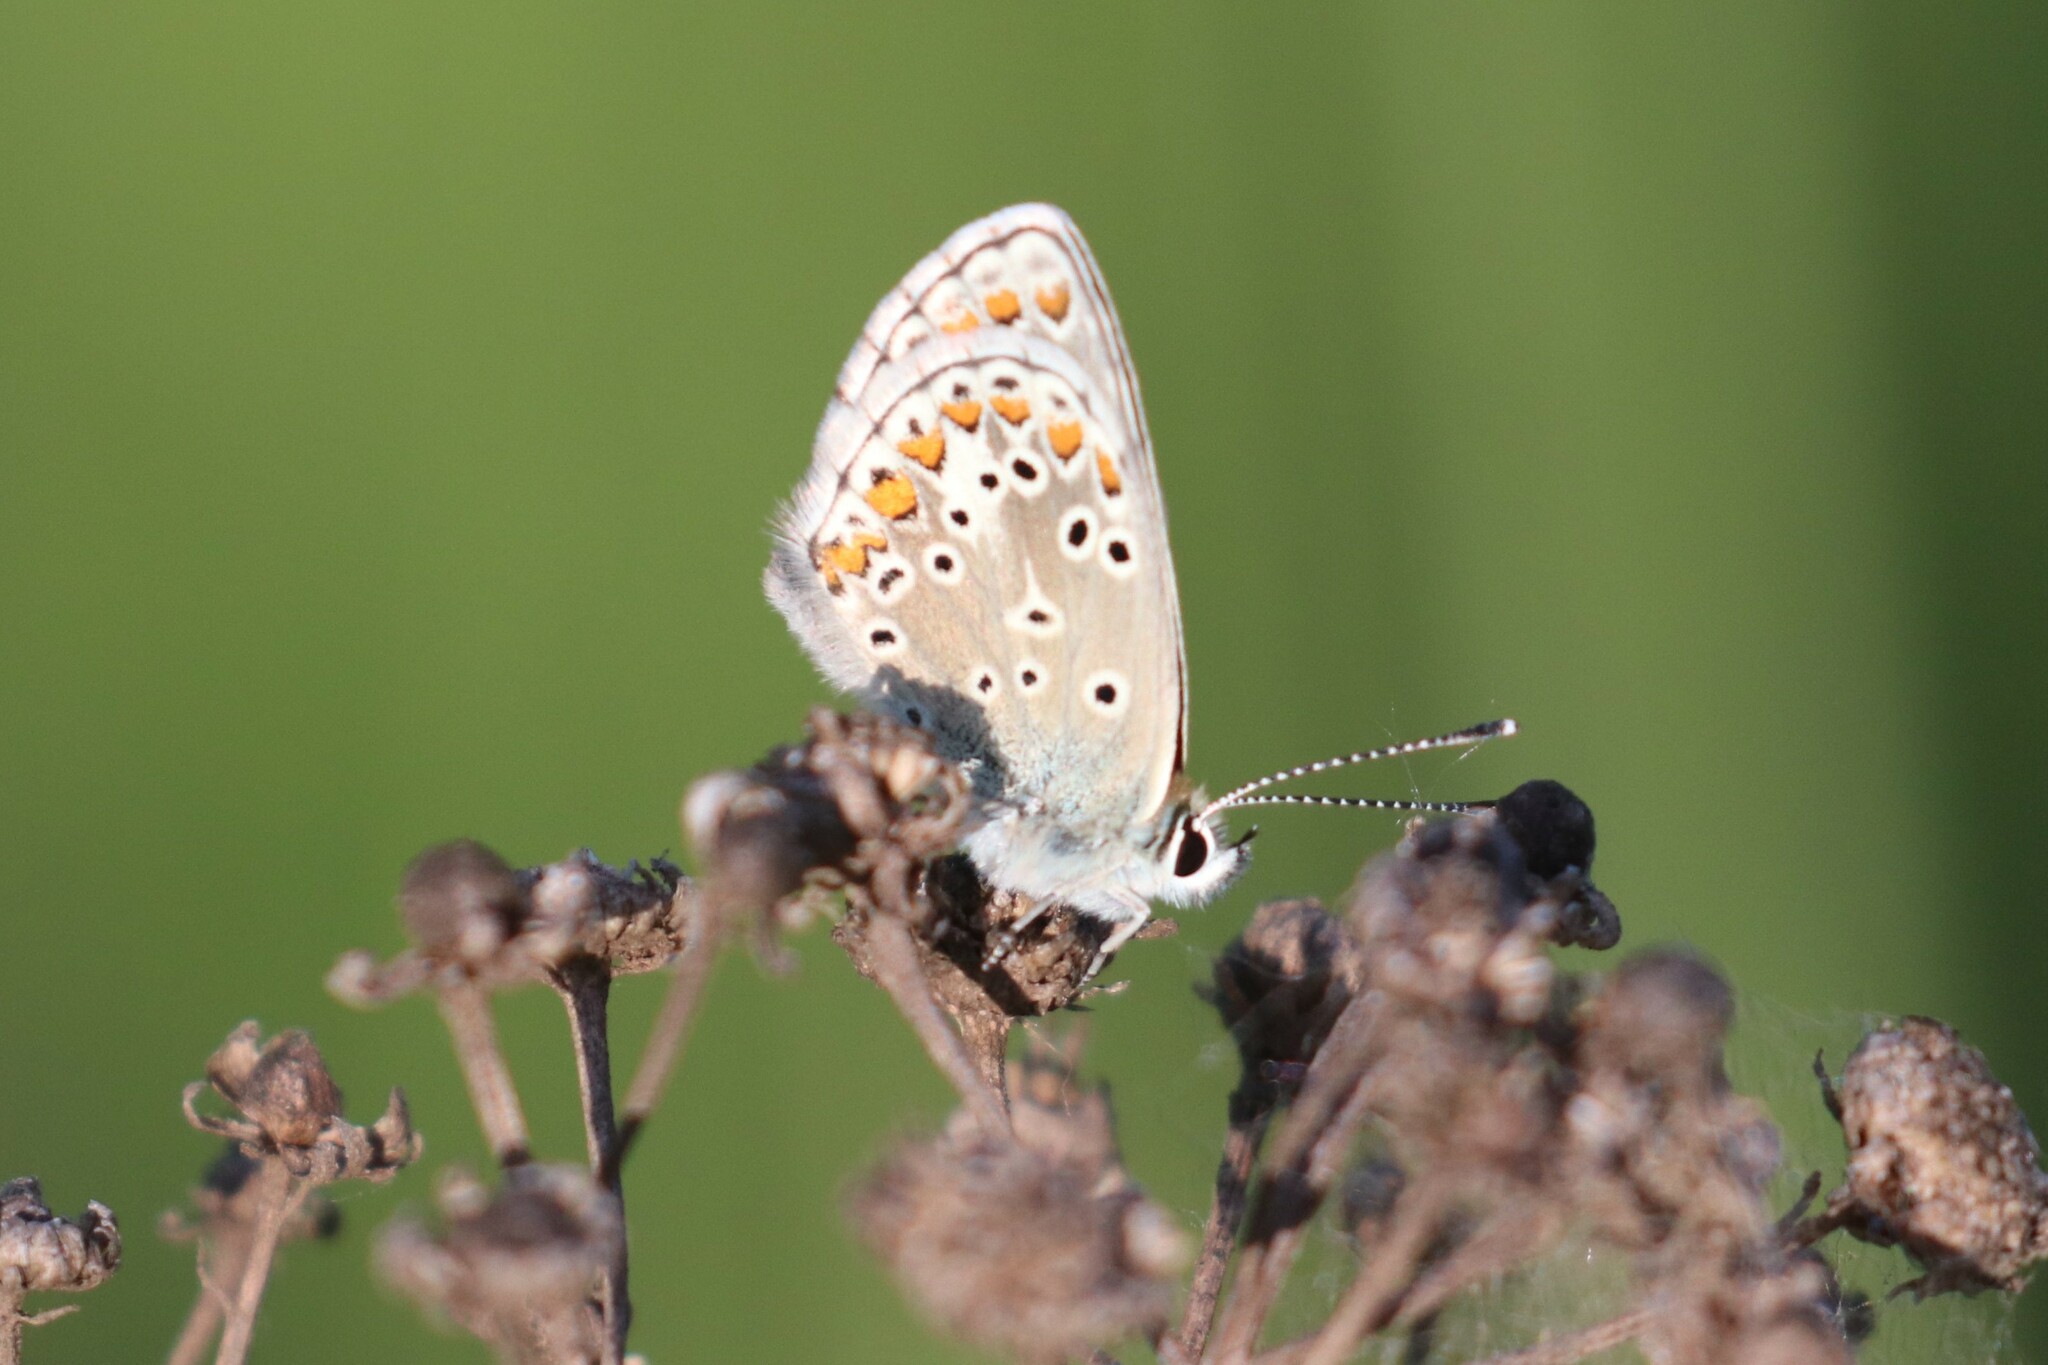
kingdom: Animalia
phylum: Arthropoda
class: Insecta
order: Lepidoptera
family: Lycaenidae
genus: Aricia
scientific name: Aricia artaxerxes
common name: Northern brown argus
